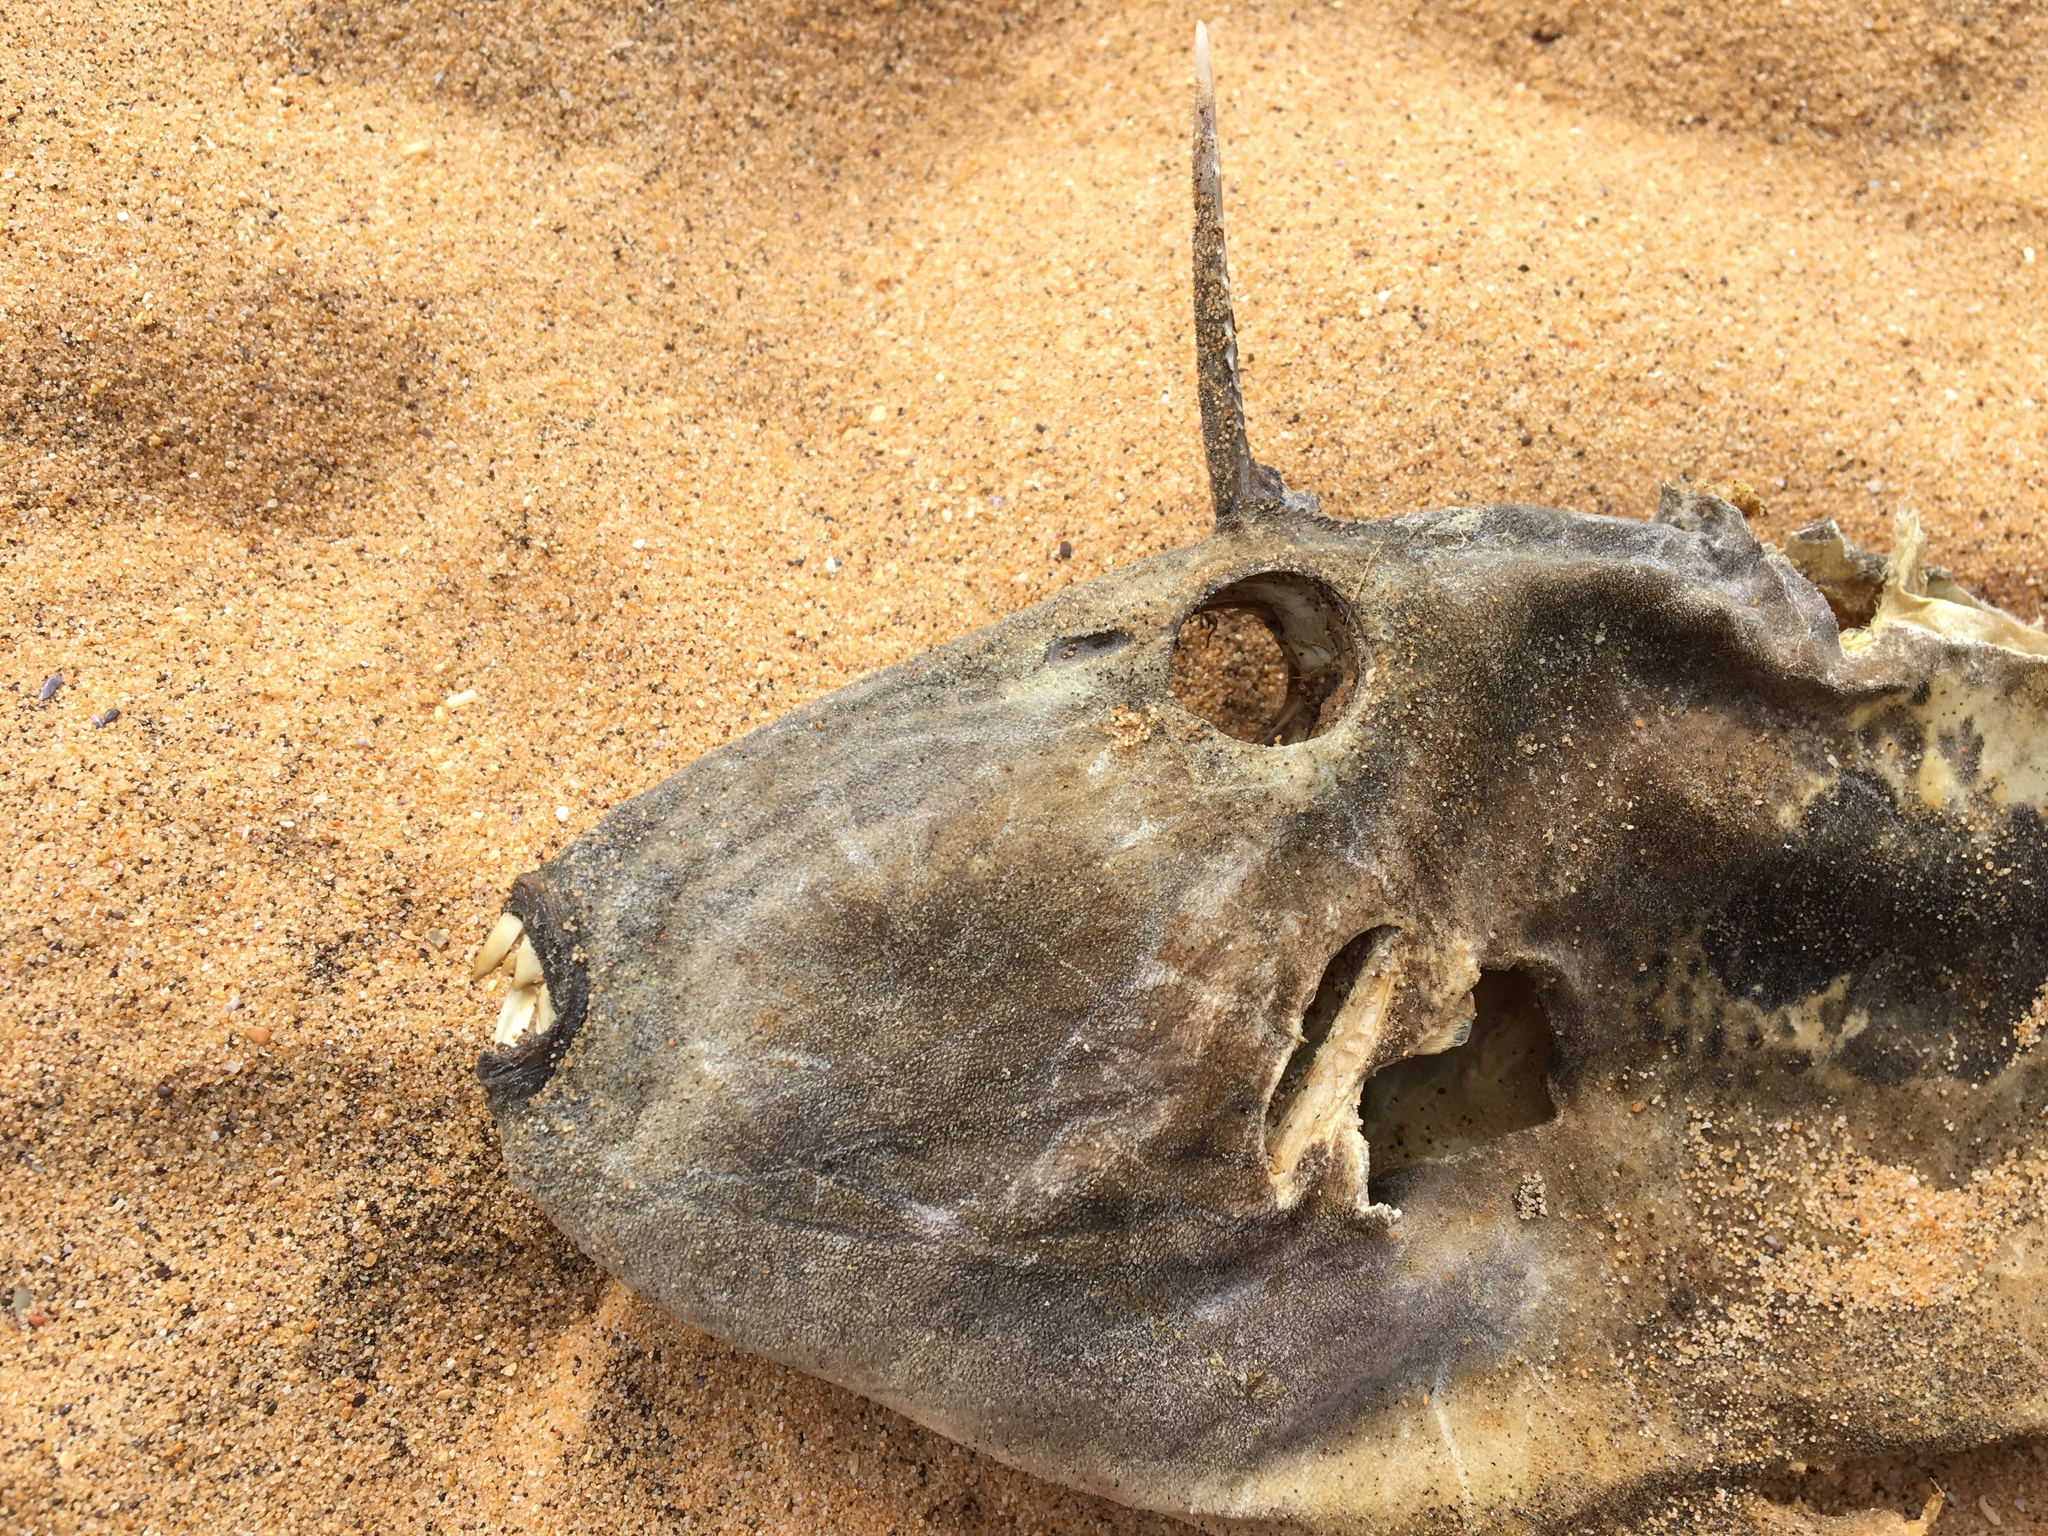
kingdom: Animalia
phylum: Chordata
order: Tetraodontiformes
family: Monacanthidae
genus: Meuschenia
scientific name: Meuschenia freycineti
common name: Freycinet's leatherjacket
